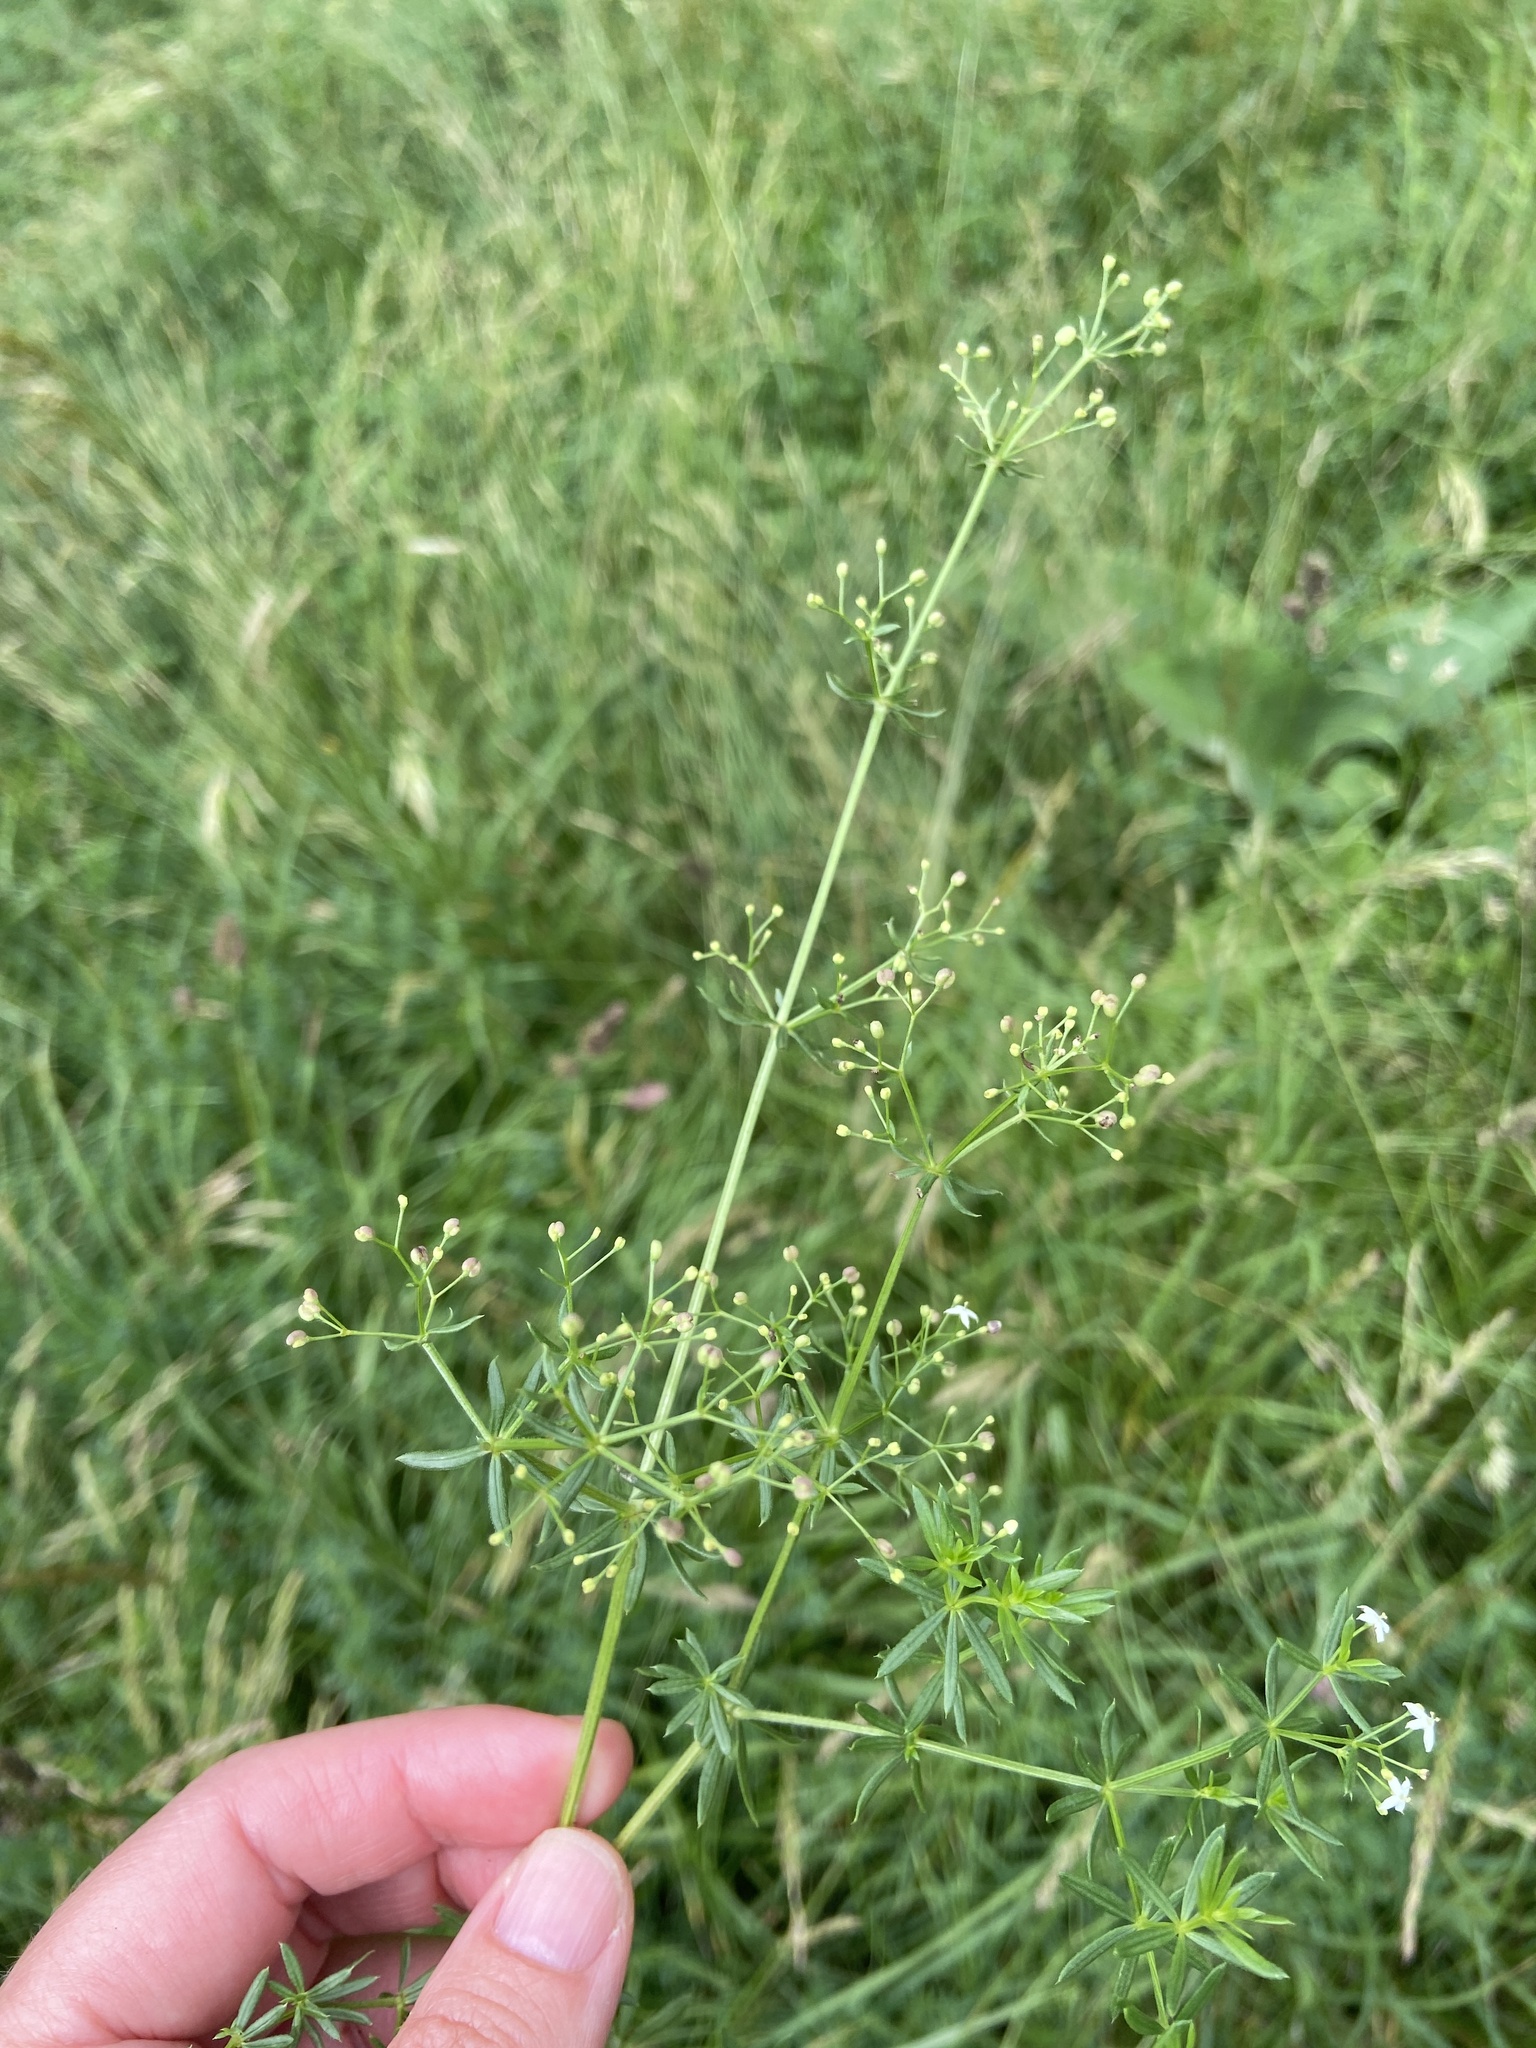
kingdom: Plantae
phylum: Tracheophyta
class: Magnoliopsida
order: Gentianales
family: Rubiaceae
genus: Galium
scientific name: Galium pumilum
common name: Slender bedstraw
